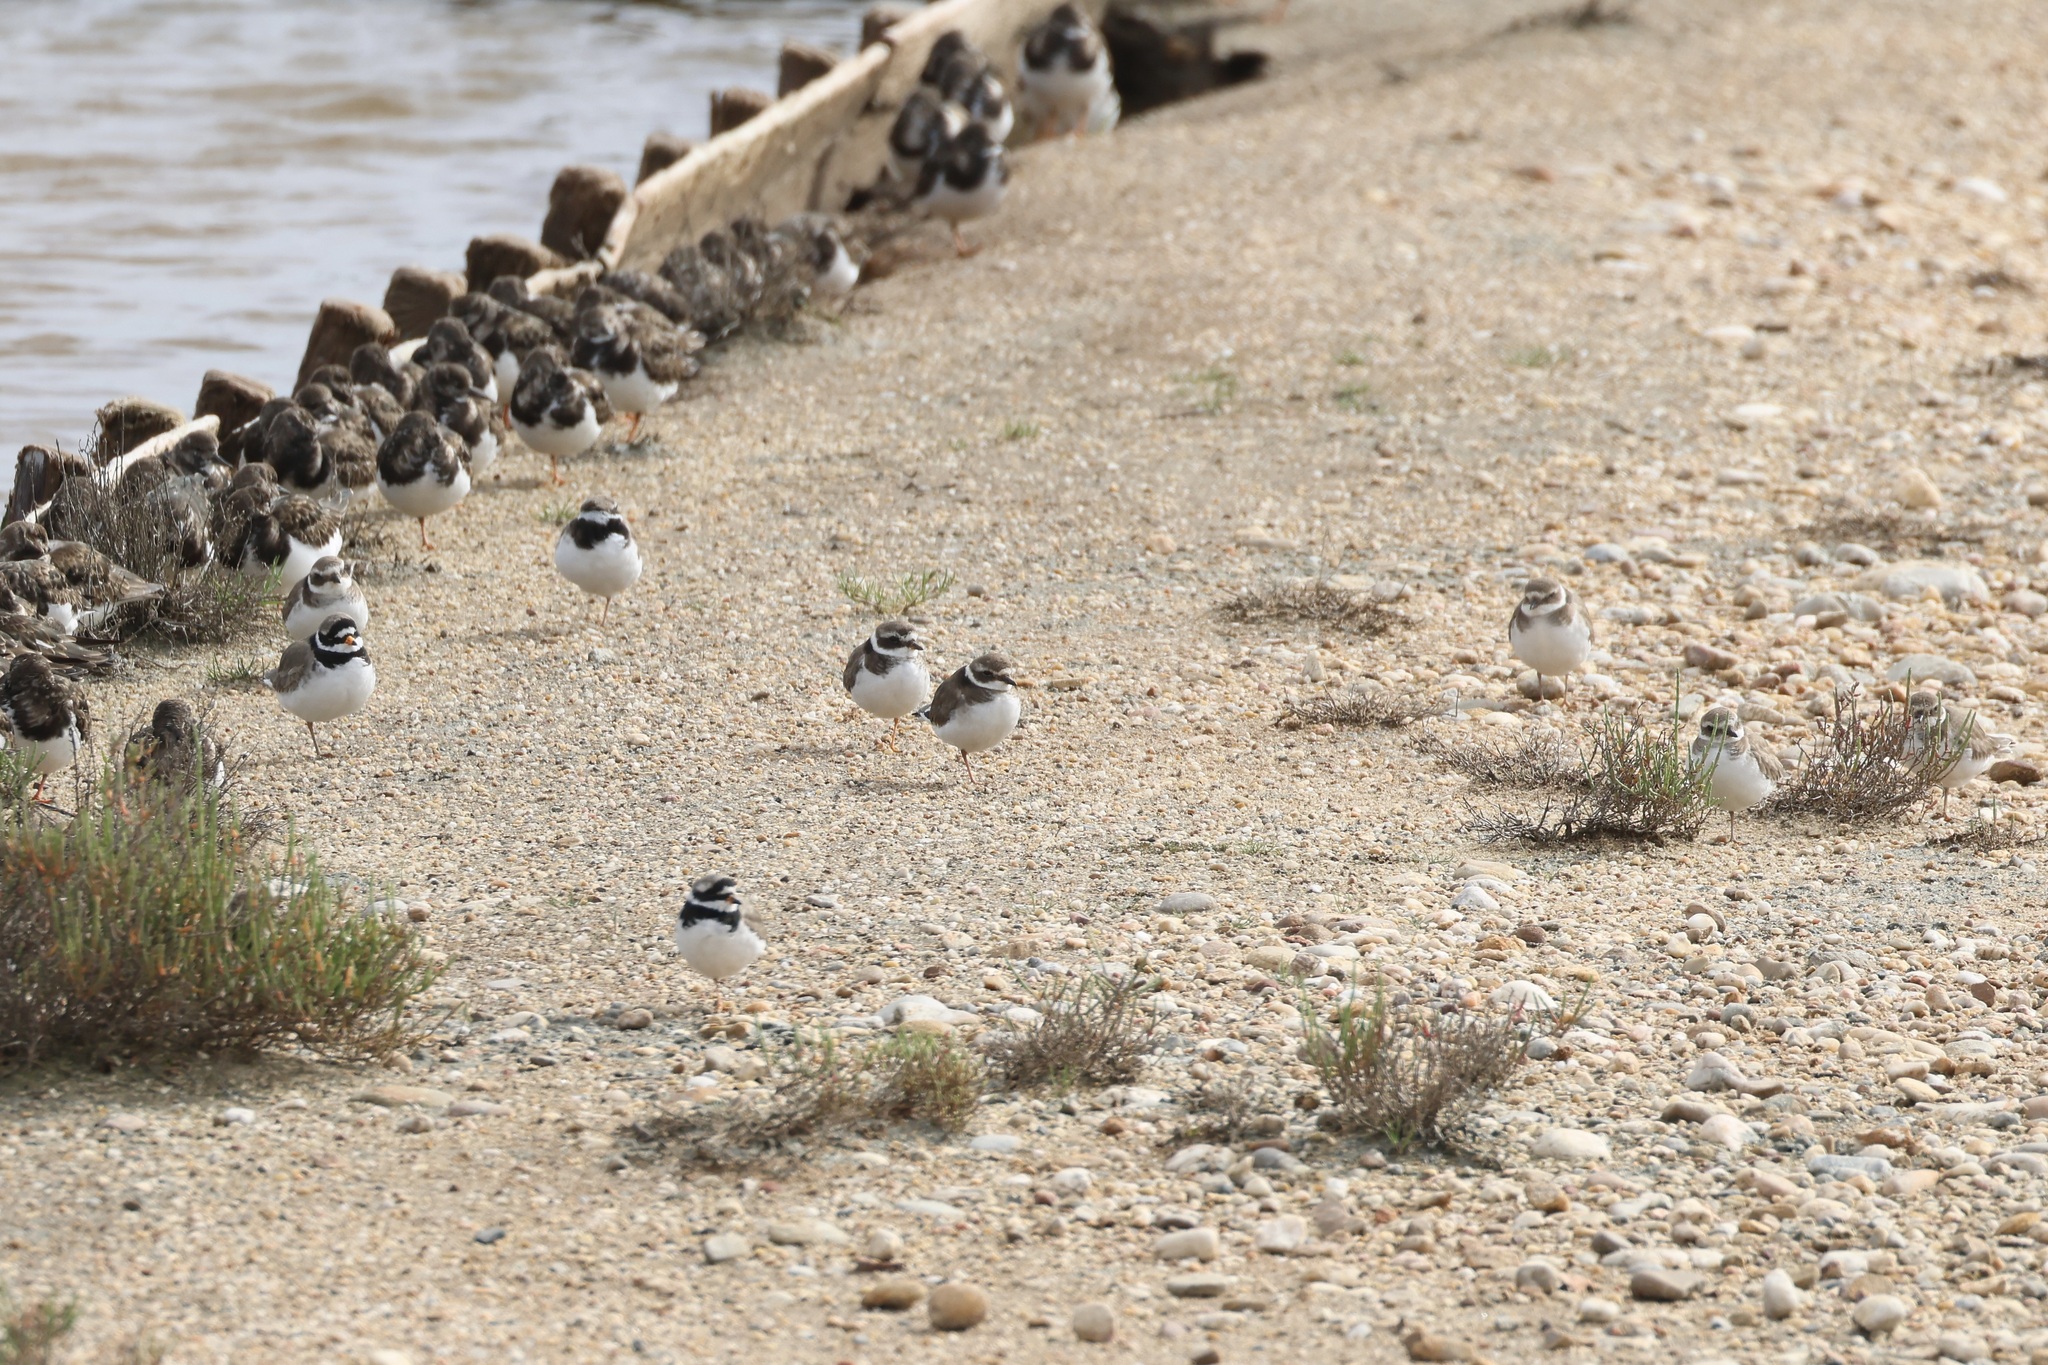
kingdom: Animalia
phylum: Chordata
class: Aves
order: Charadriiformes
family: Charadriidae
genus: Charadrius
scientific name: Charadrius hiaticula
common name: Common ringed plover
